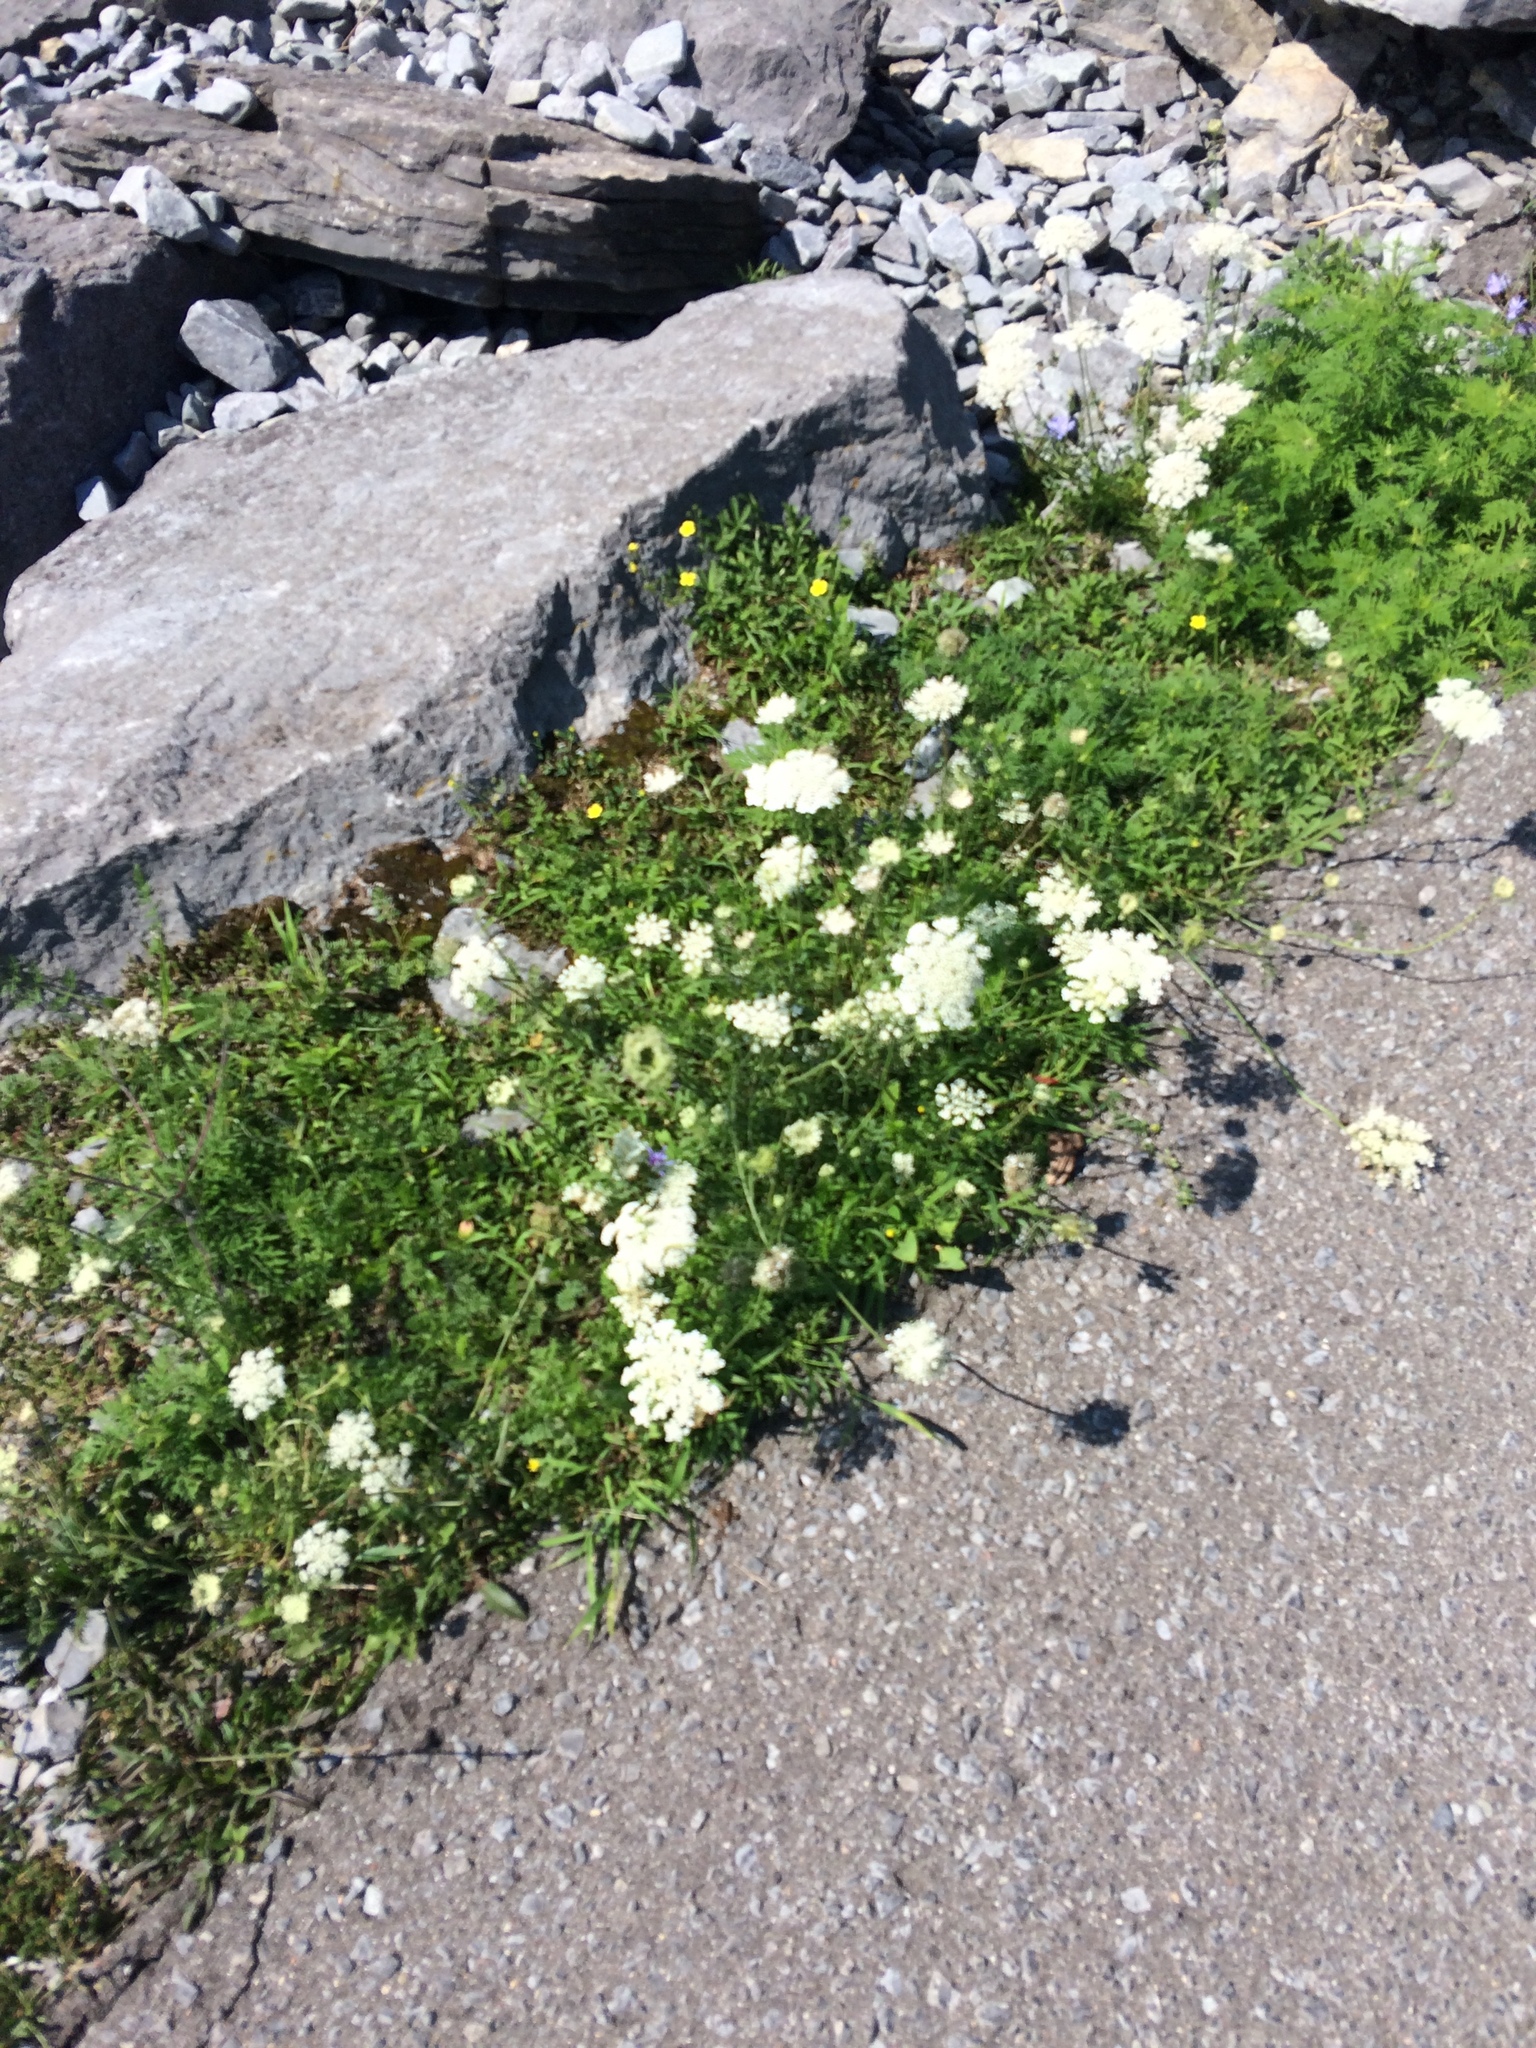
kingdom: Plantae
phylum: Tracheophyta
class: Magnoliopsida
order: Apiales
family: Apiaceae
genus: Daucus
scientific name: Daucus carota
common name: Wild carrot
